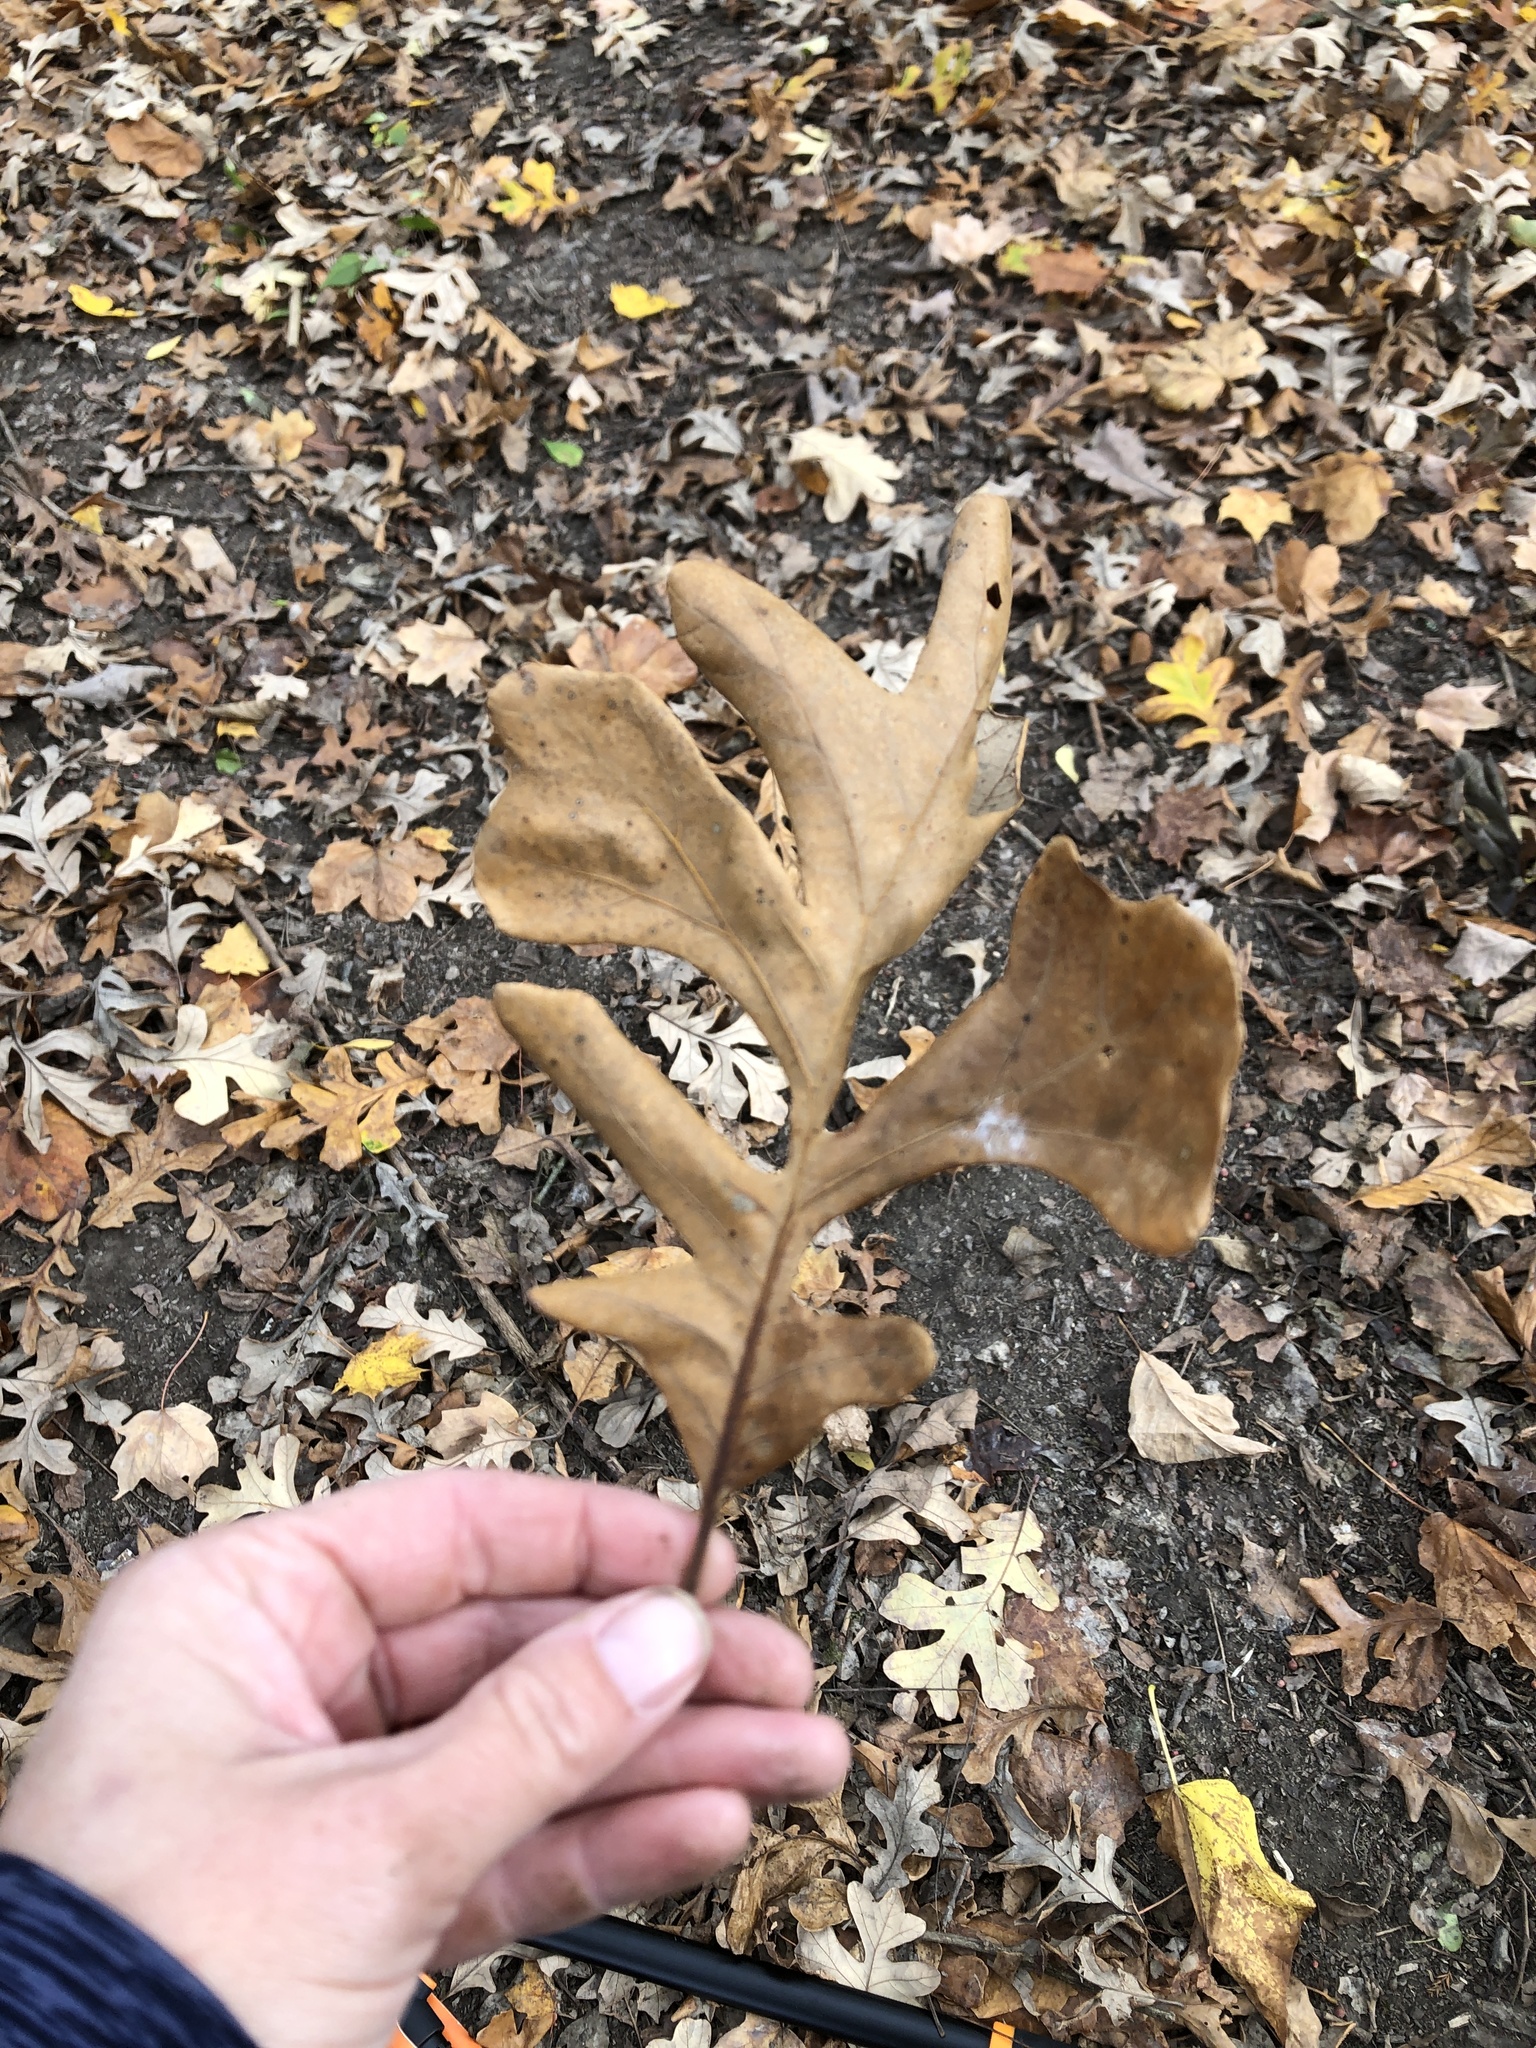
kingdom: Plantae
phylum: Tracheophyta
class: Magnoliopsida
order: Fagales
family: Fagaceae
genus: Quercus
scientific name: Quercus macrocarpa
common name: Bur oak
